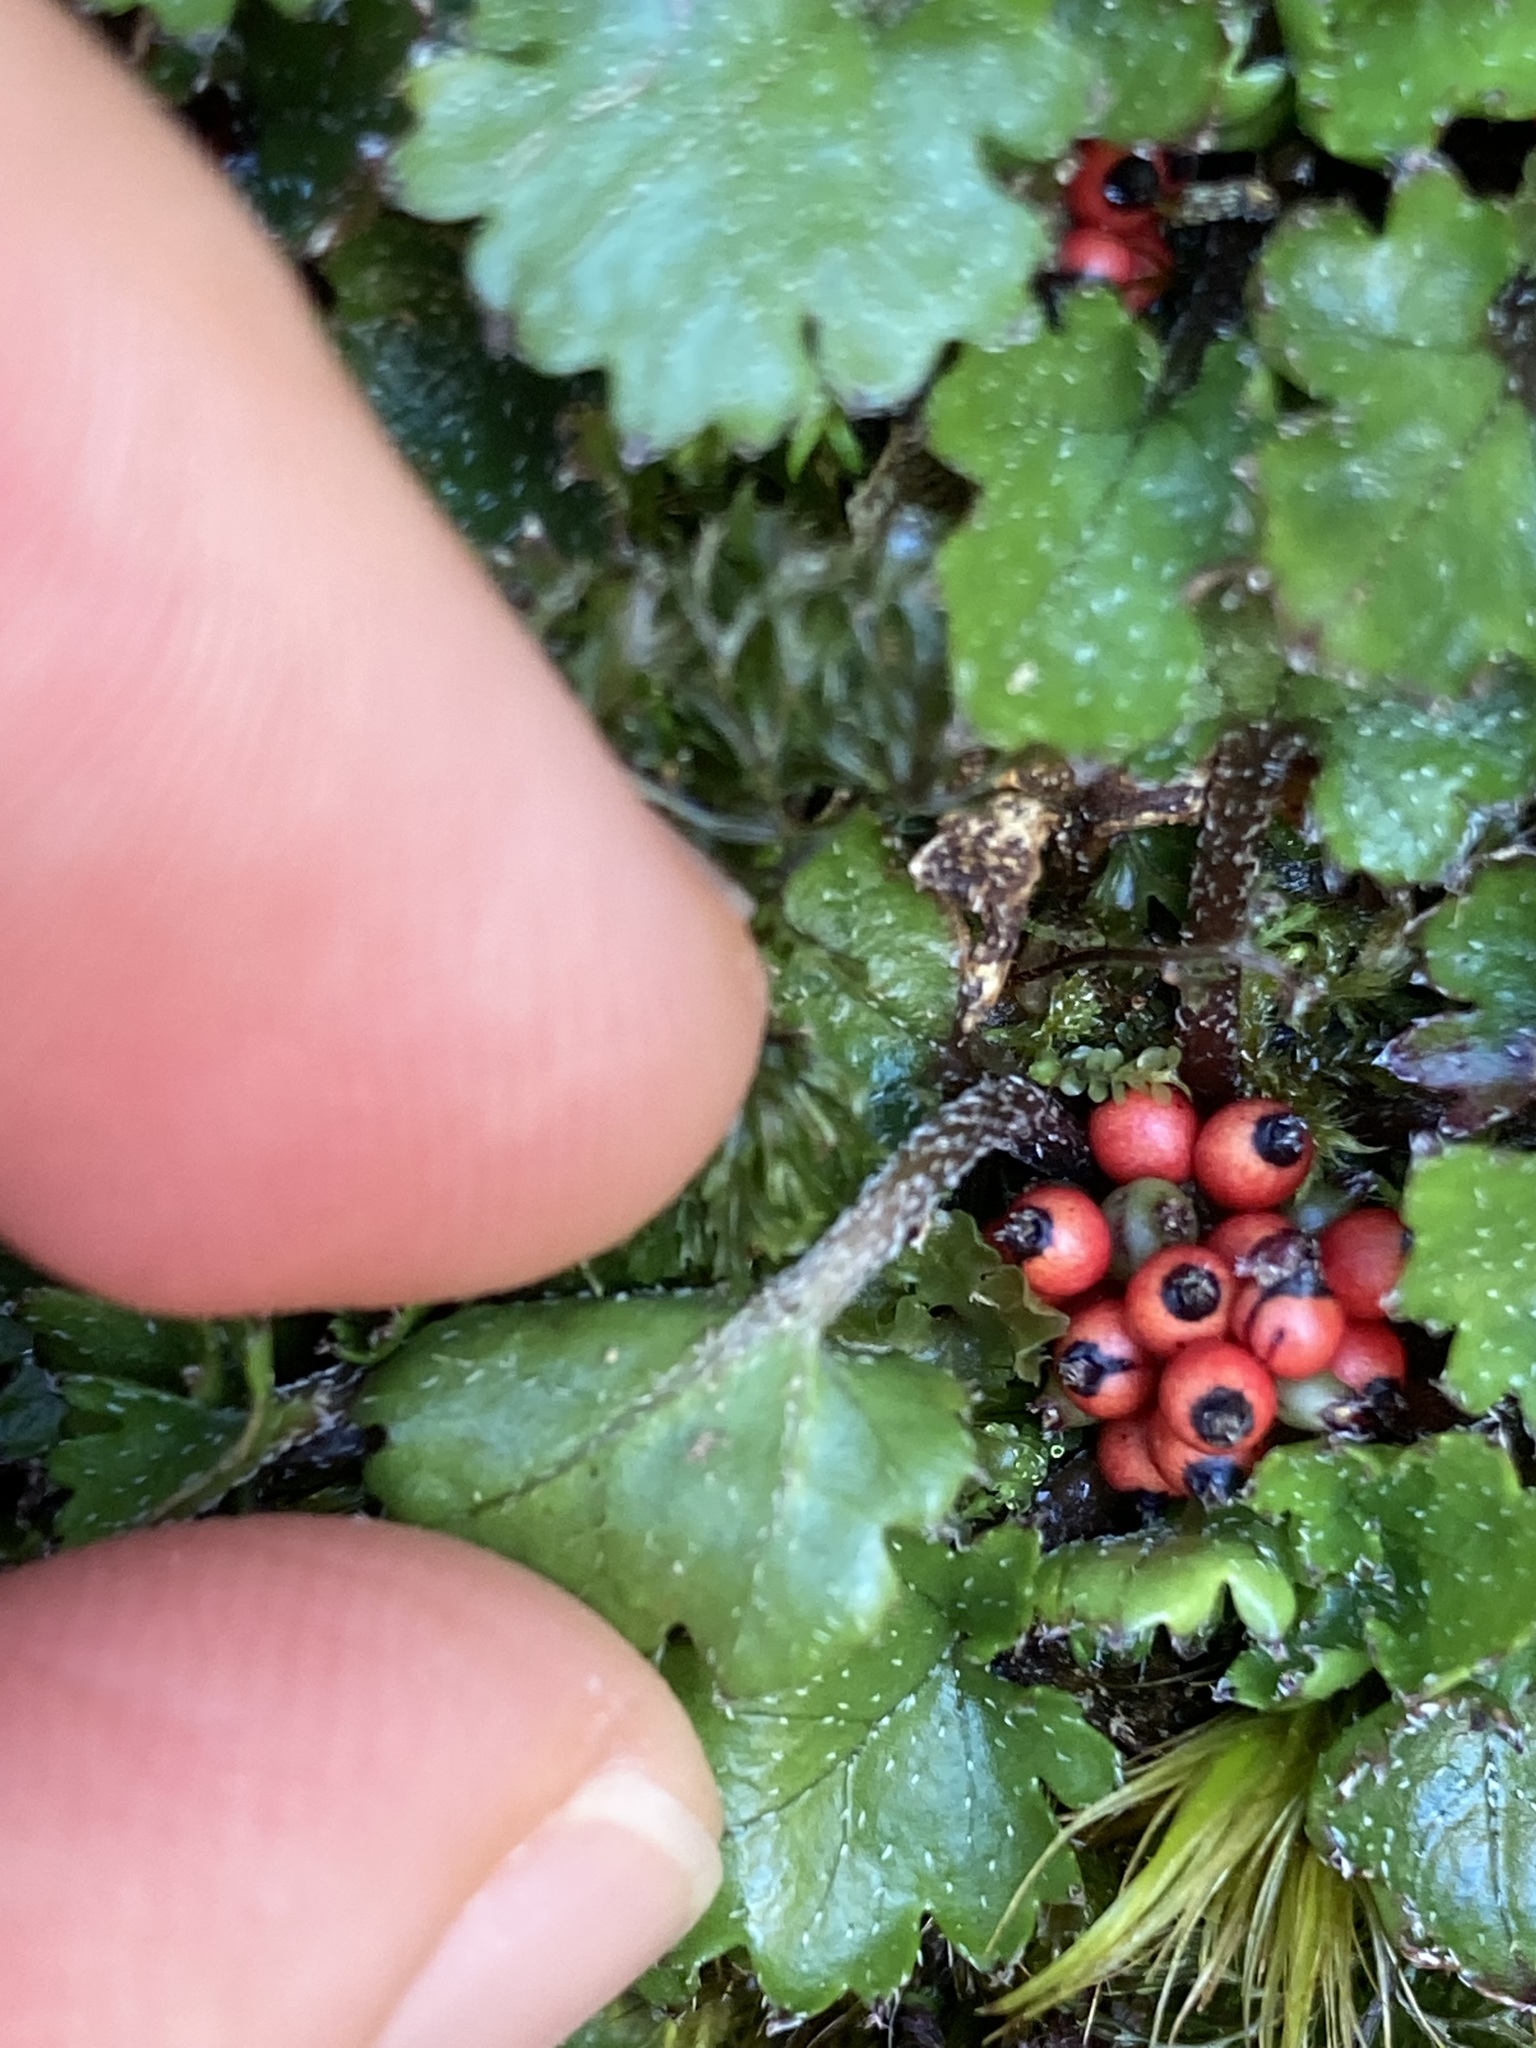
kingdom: Plantae
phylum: Tracheophyta
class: Magnoliopsida
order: Gunnerales
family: Gunneraceae
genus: Gunnera
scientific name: Gunnera monoica
